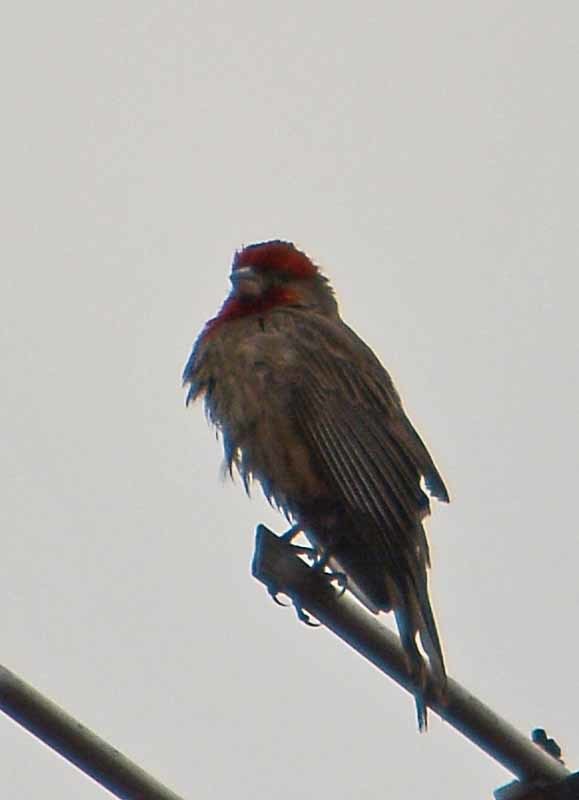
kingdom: Animalia
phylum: Chordata
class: Aves
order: Passeriformes
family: Fringillidae
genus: Haemorhous
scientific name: Haemorhous mexicanus
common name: House finch
